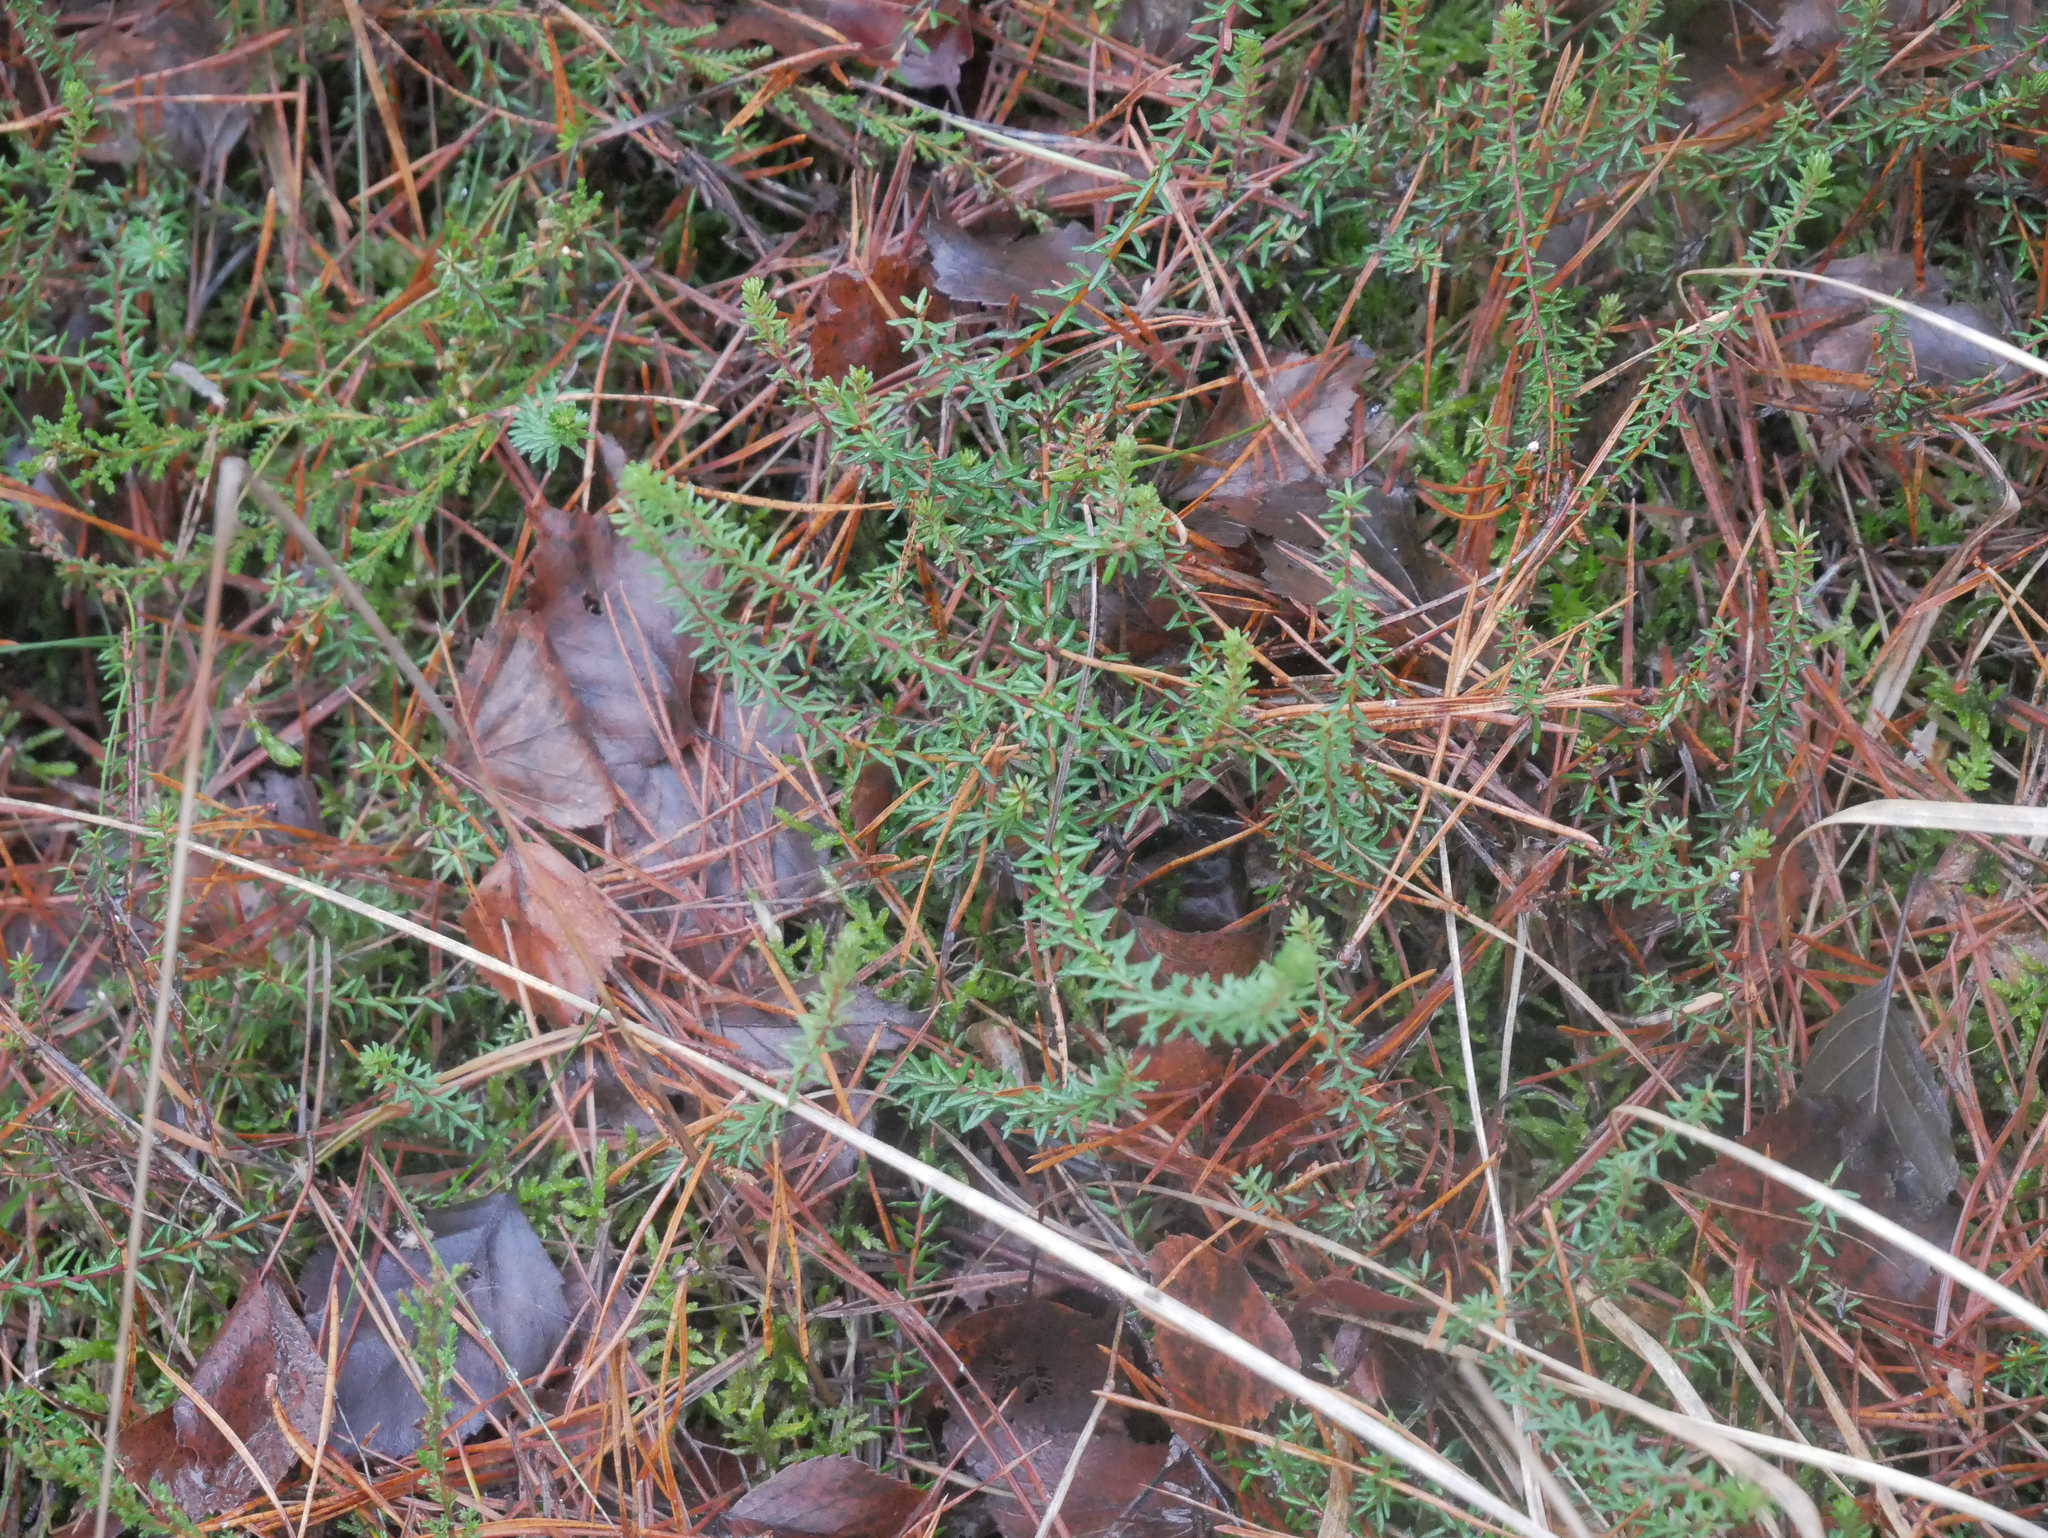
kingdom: Plantae
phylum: Tracheophyta
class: Magnoliopsida
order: Ericales
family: Ericaceae
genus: Empetrum
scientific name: Empetrum nigrum
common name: Black crowberry
